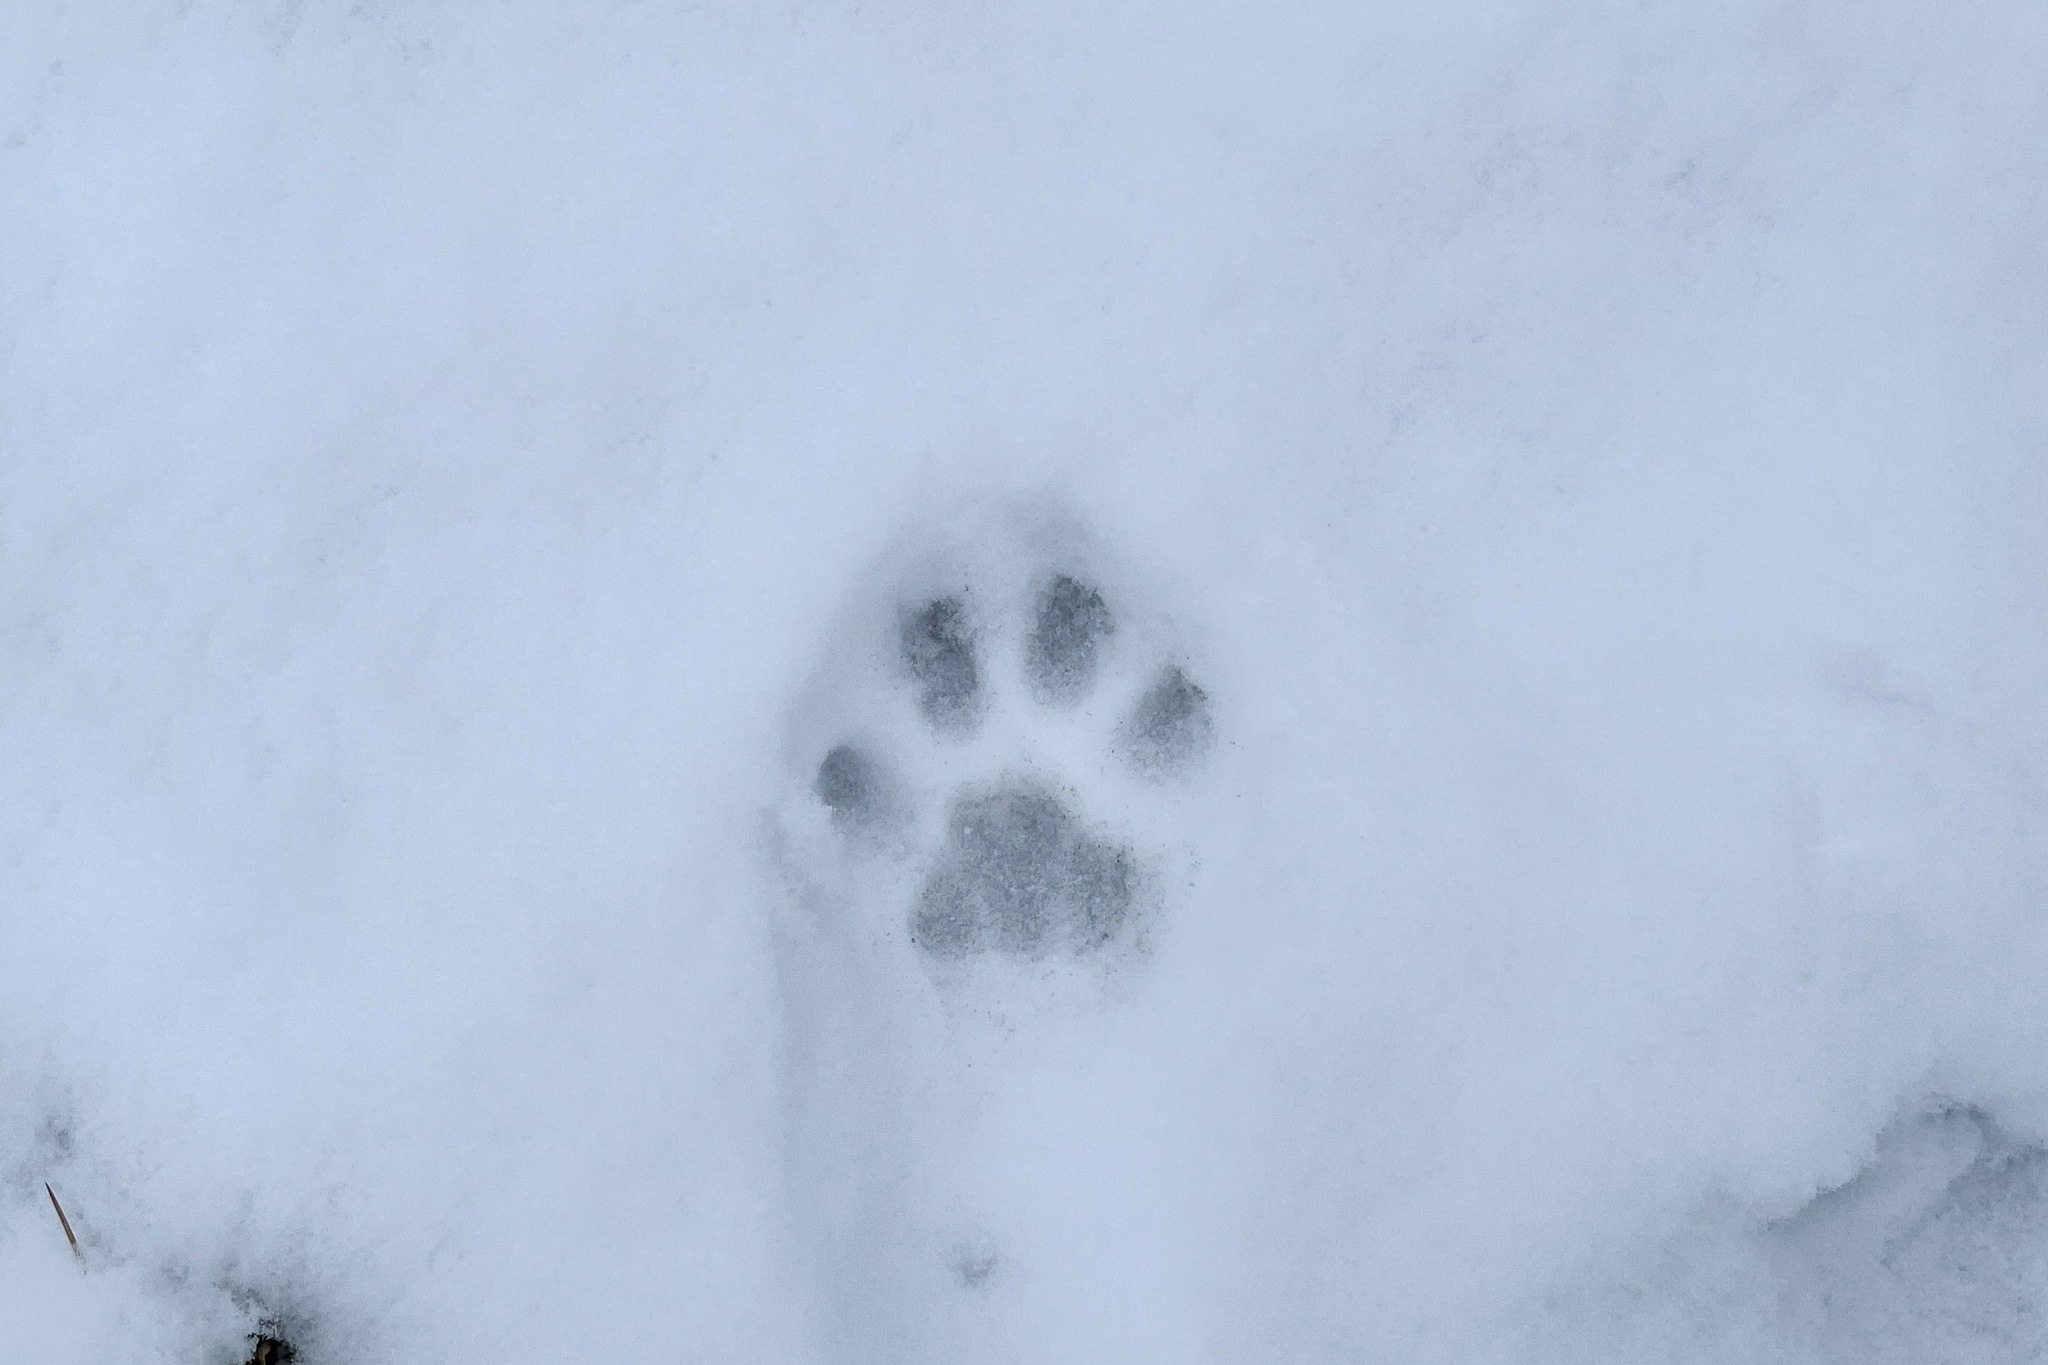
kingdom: Animalia
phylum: Chordata
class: Mammalia
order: Carnivora
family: Felidae
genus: Lynx
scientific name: Lynx lynx
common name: Eurasian lynx
